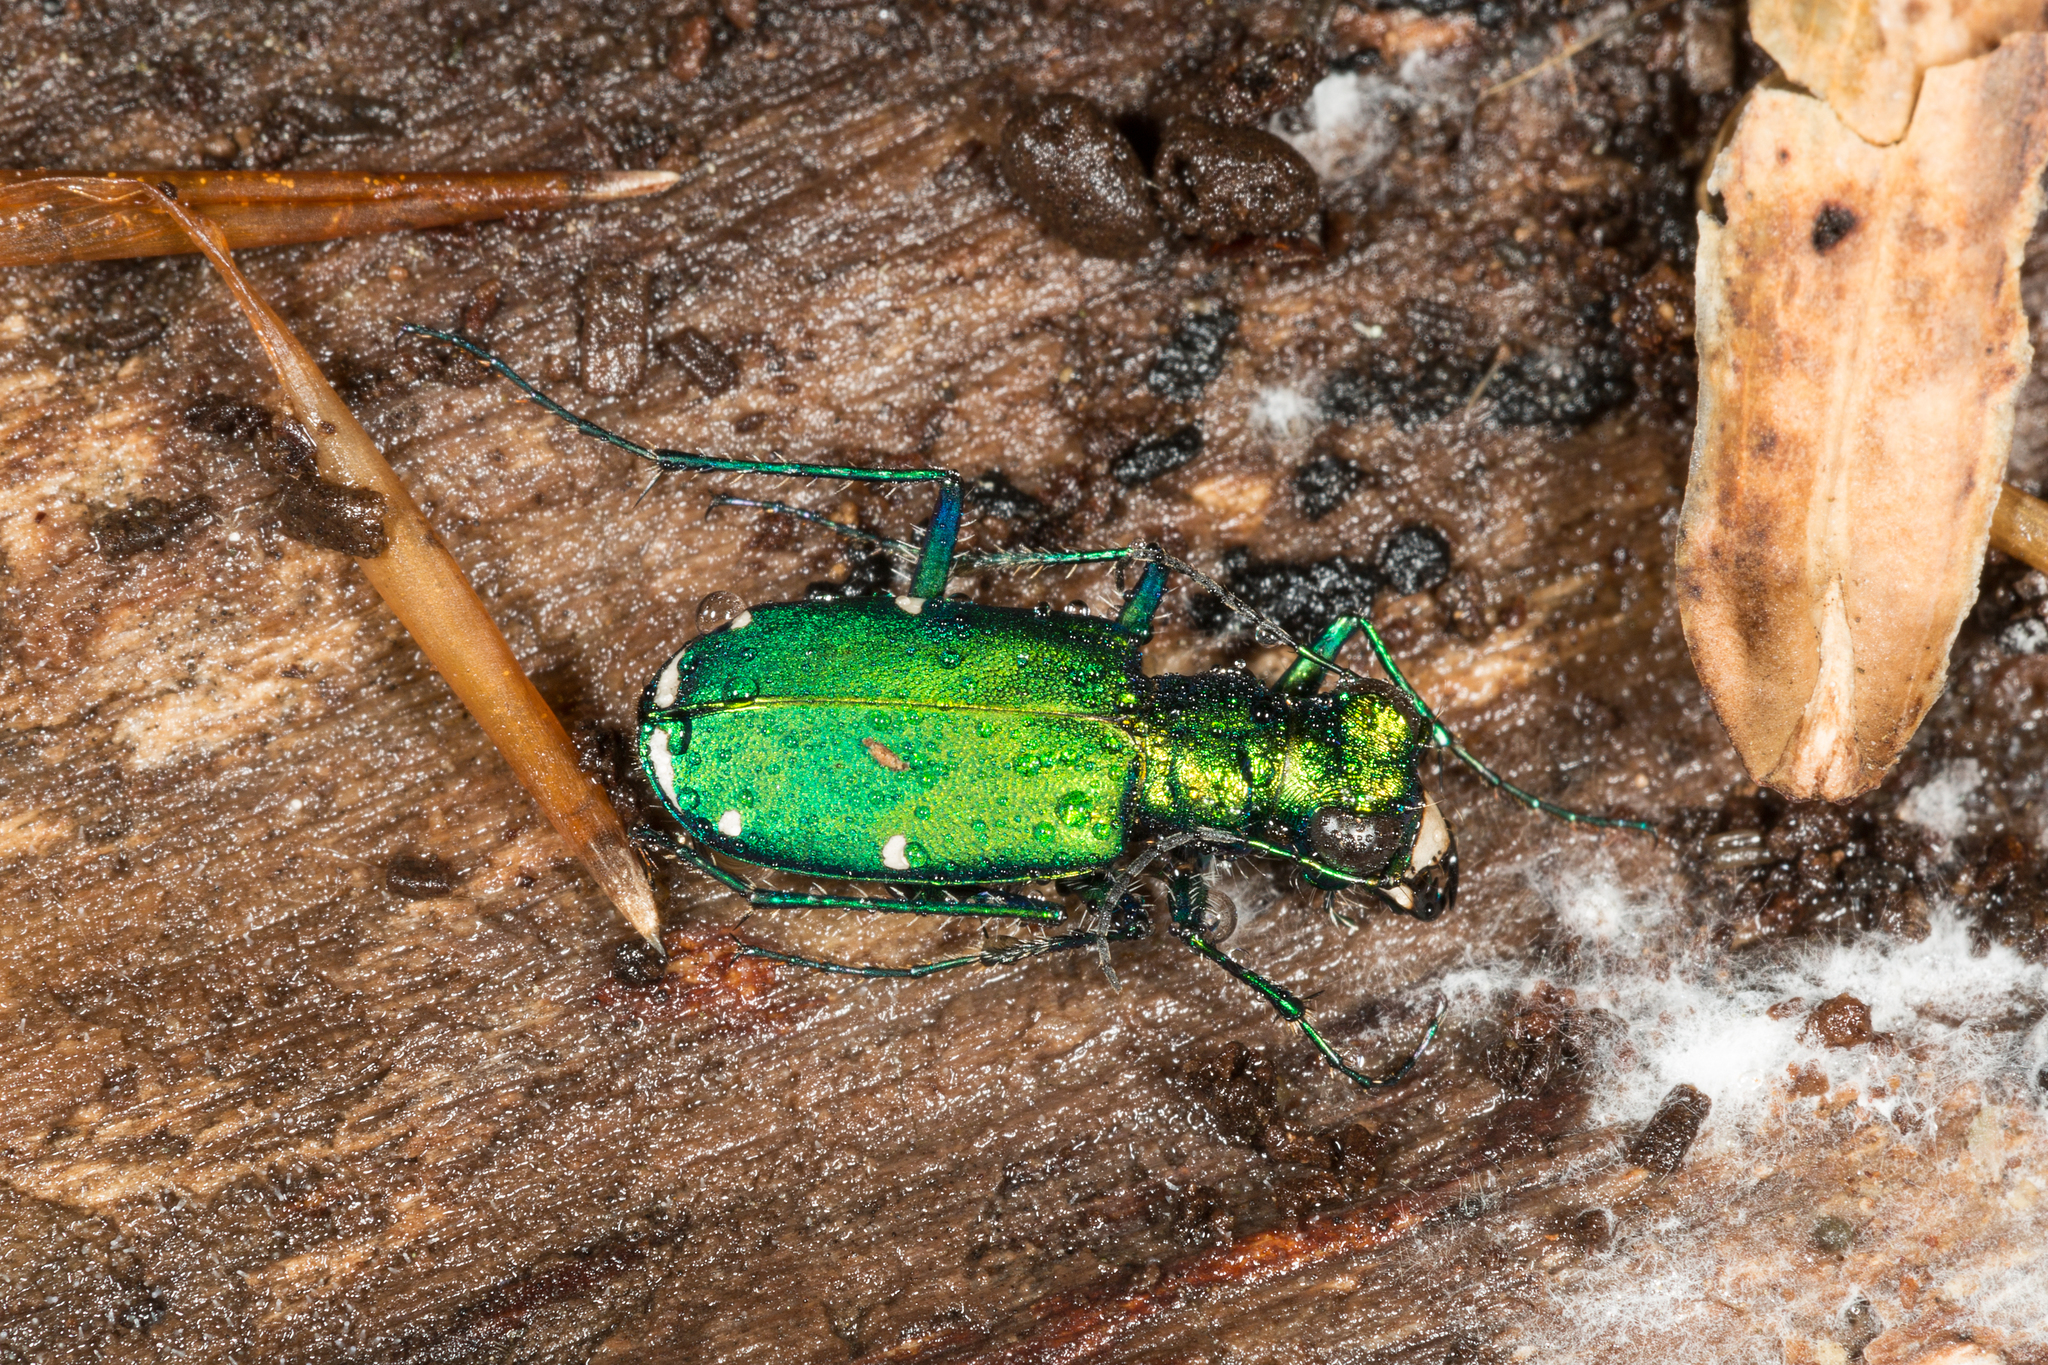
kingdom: Animalia
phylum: Arthropoda
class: Insecta
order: Coleoptera
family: Carabidae
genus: Cicindela
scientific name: Cicindela sexguttata
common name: Six-spotted tiger beetle
